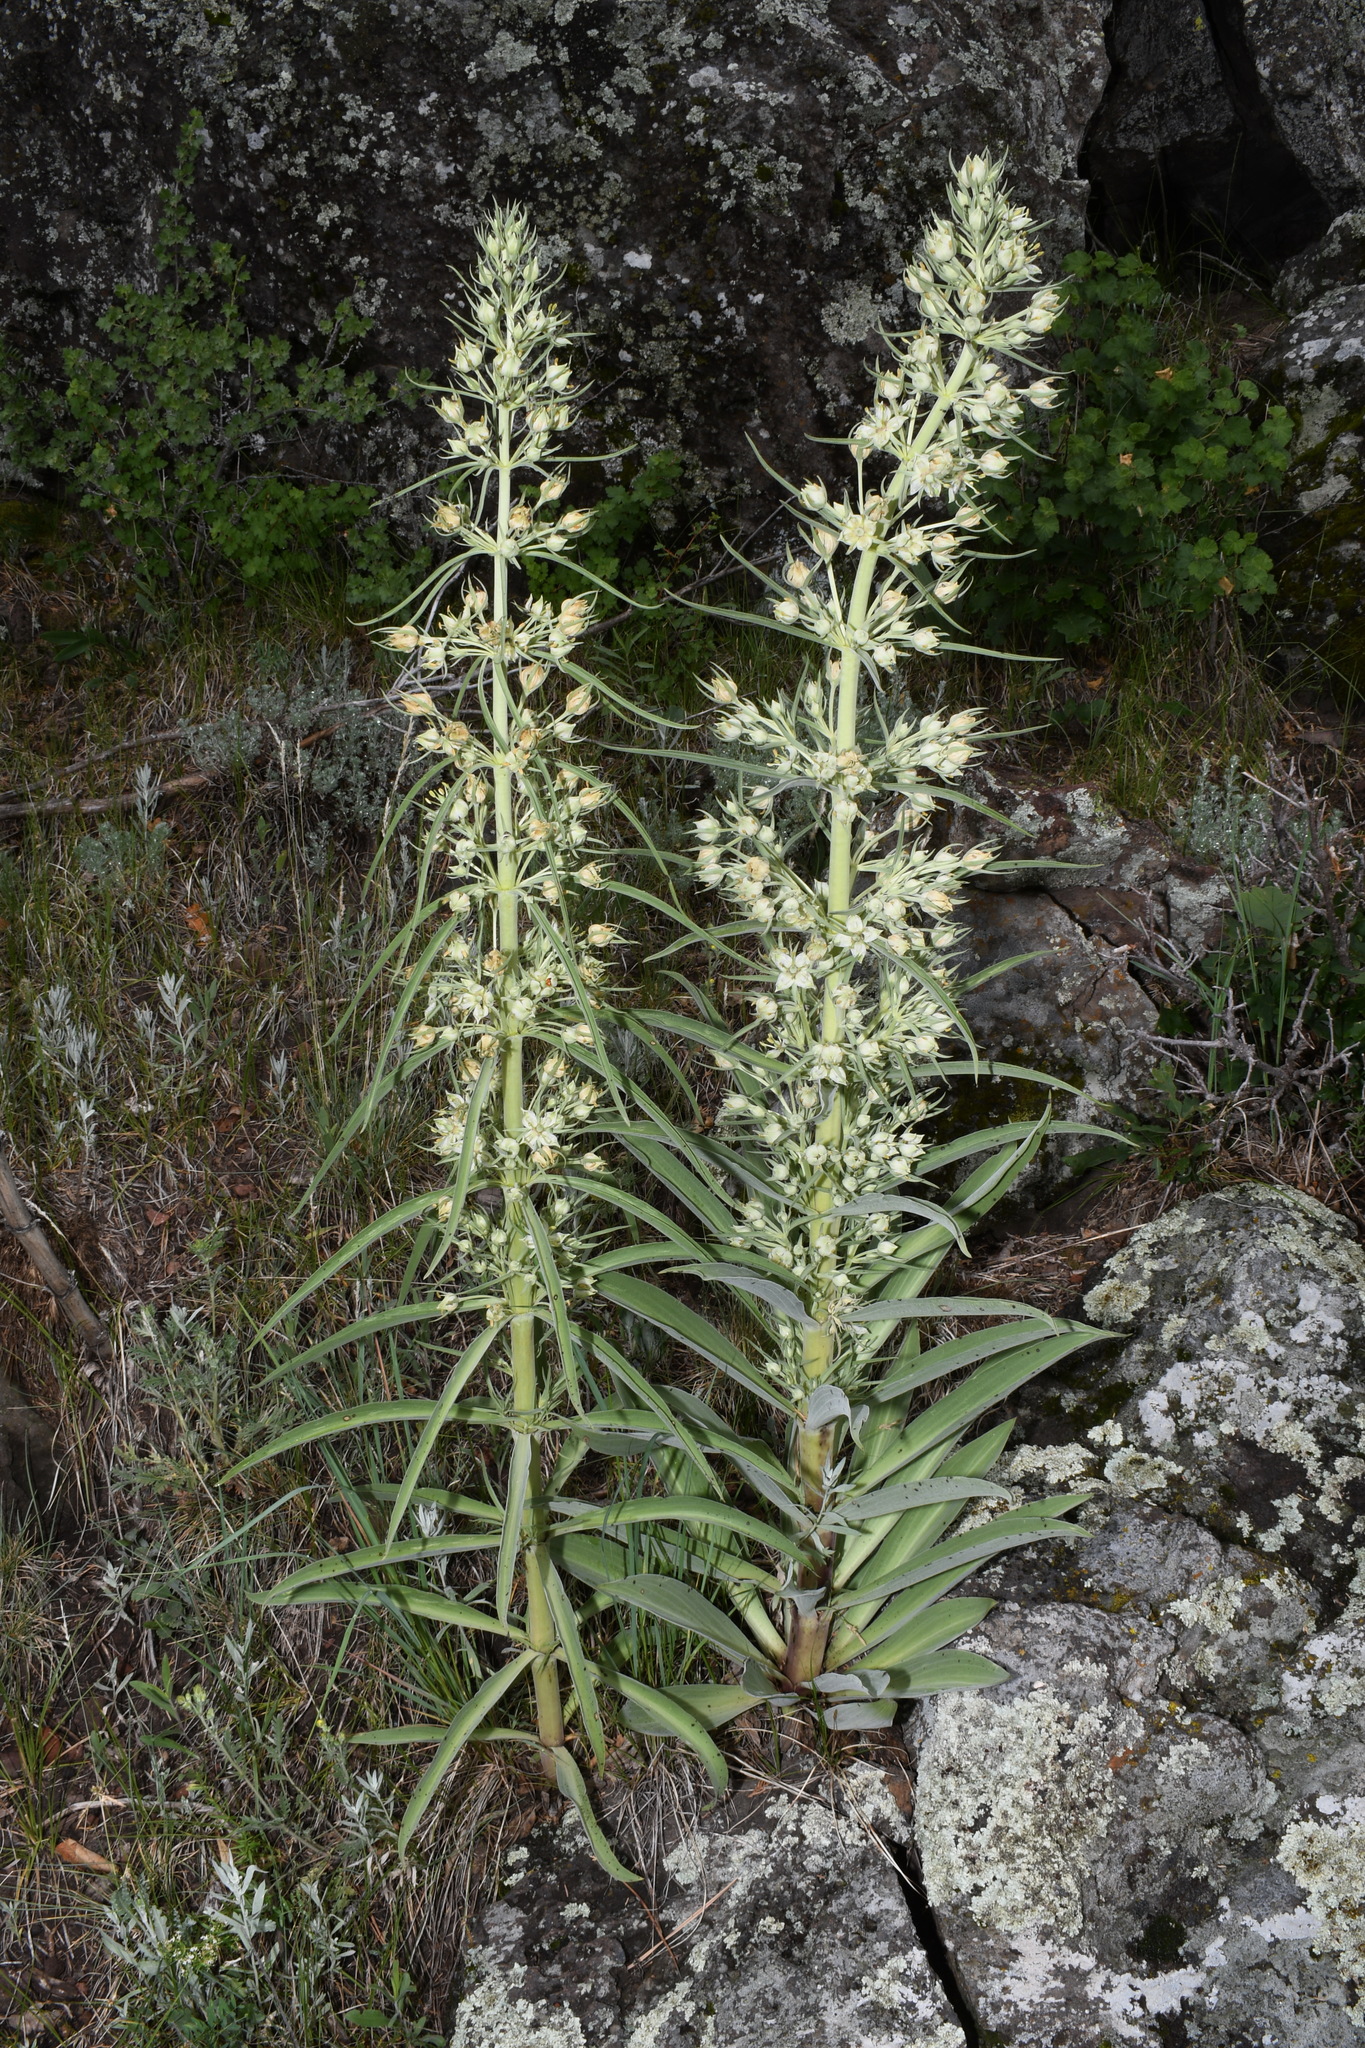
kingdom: Plantae
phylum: Tracheophyta
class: Magnoliopsida
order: Gentianales
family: Gentianaceae
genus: Frasera
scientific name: Frasera speciosa
